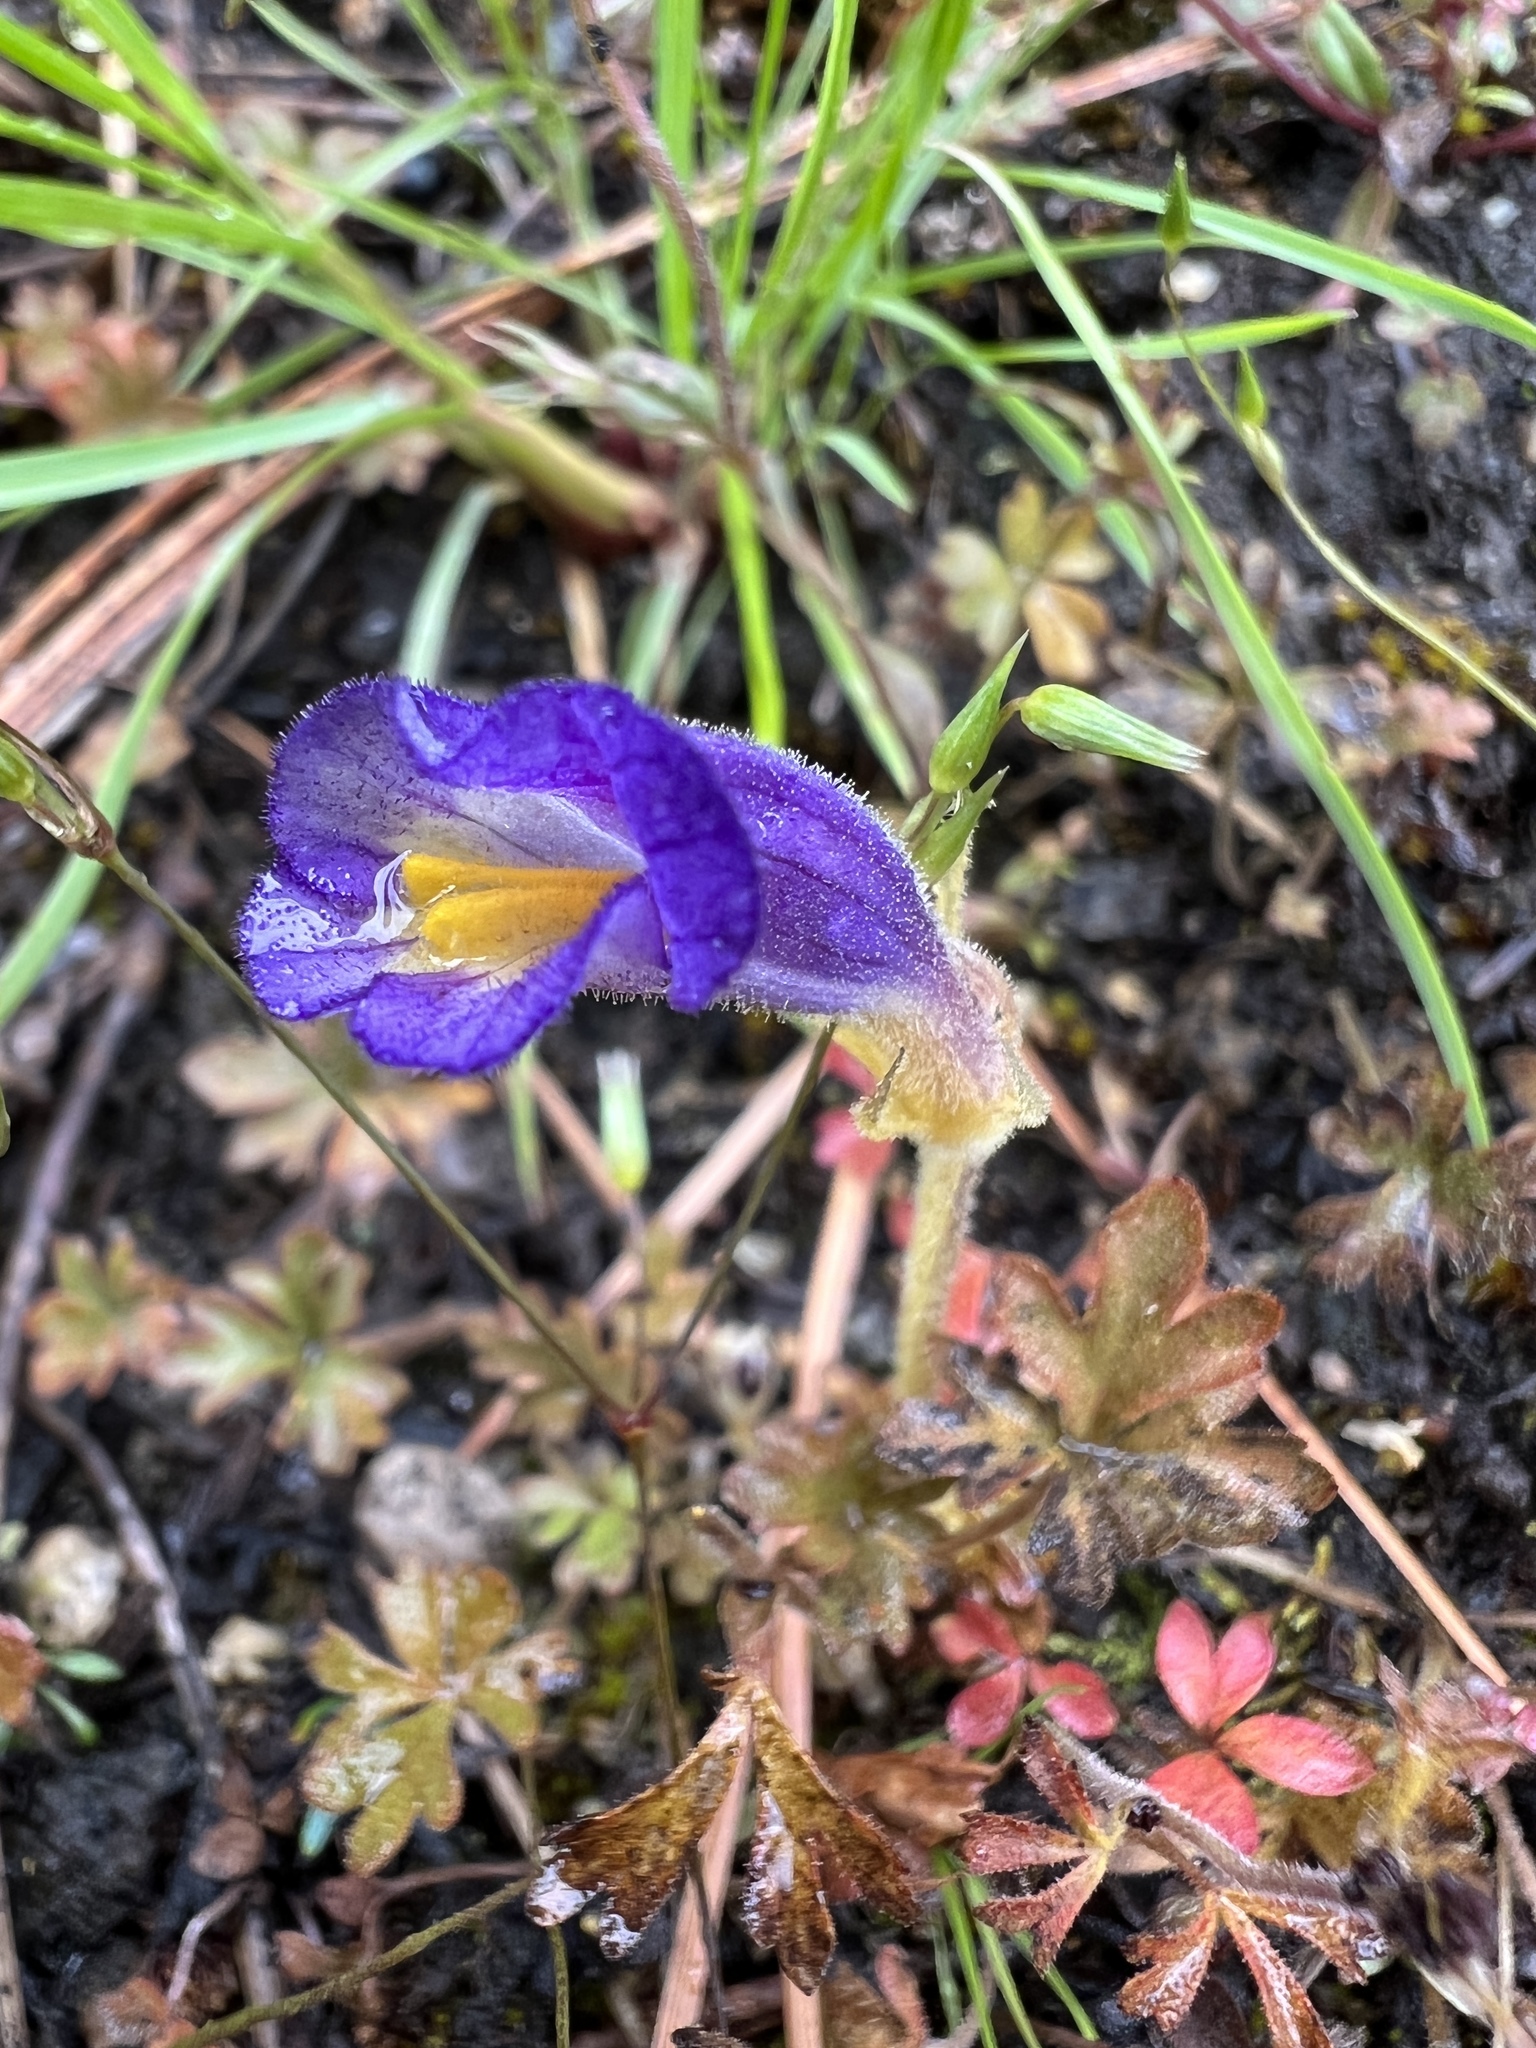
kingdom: Plantae
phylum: Tracheophyta
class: Magnoliopsida
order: Lamiales
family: Orobanchaceae
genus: Aphyllon
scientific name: Aphyllon uniflorum
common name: One-flowered broomrape
